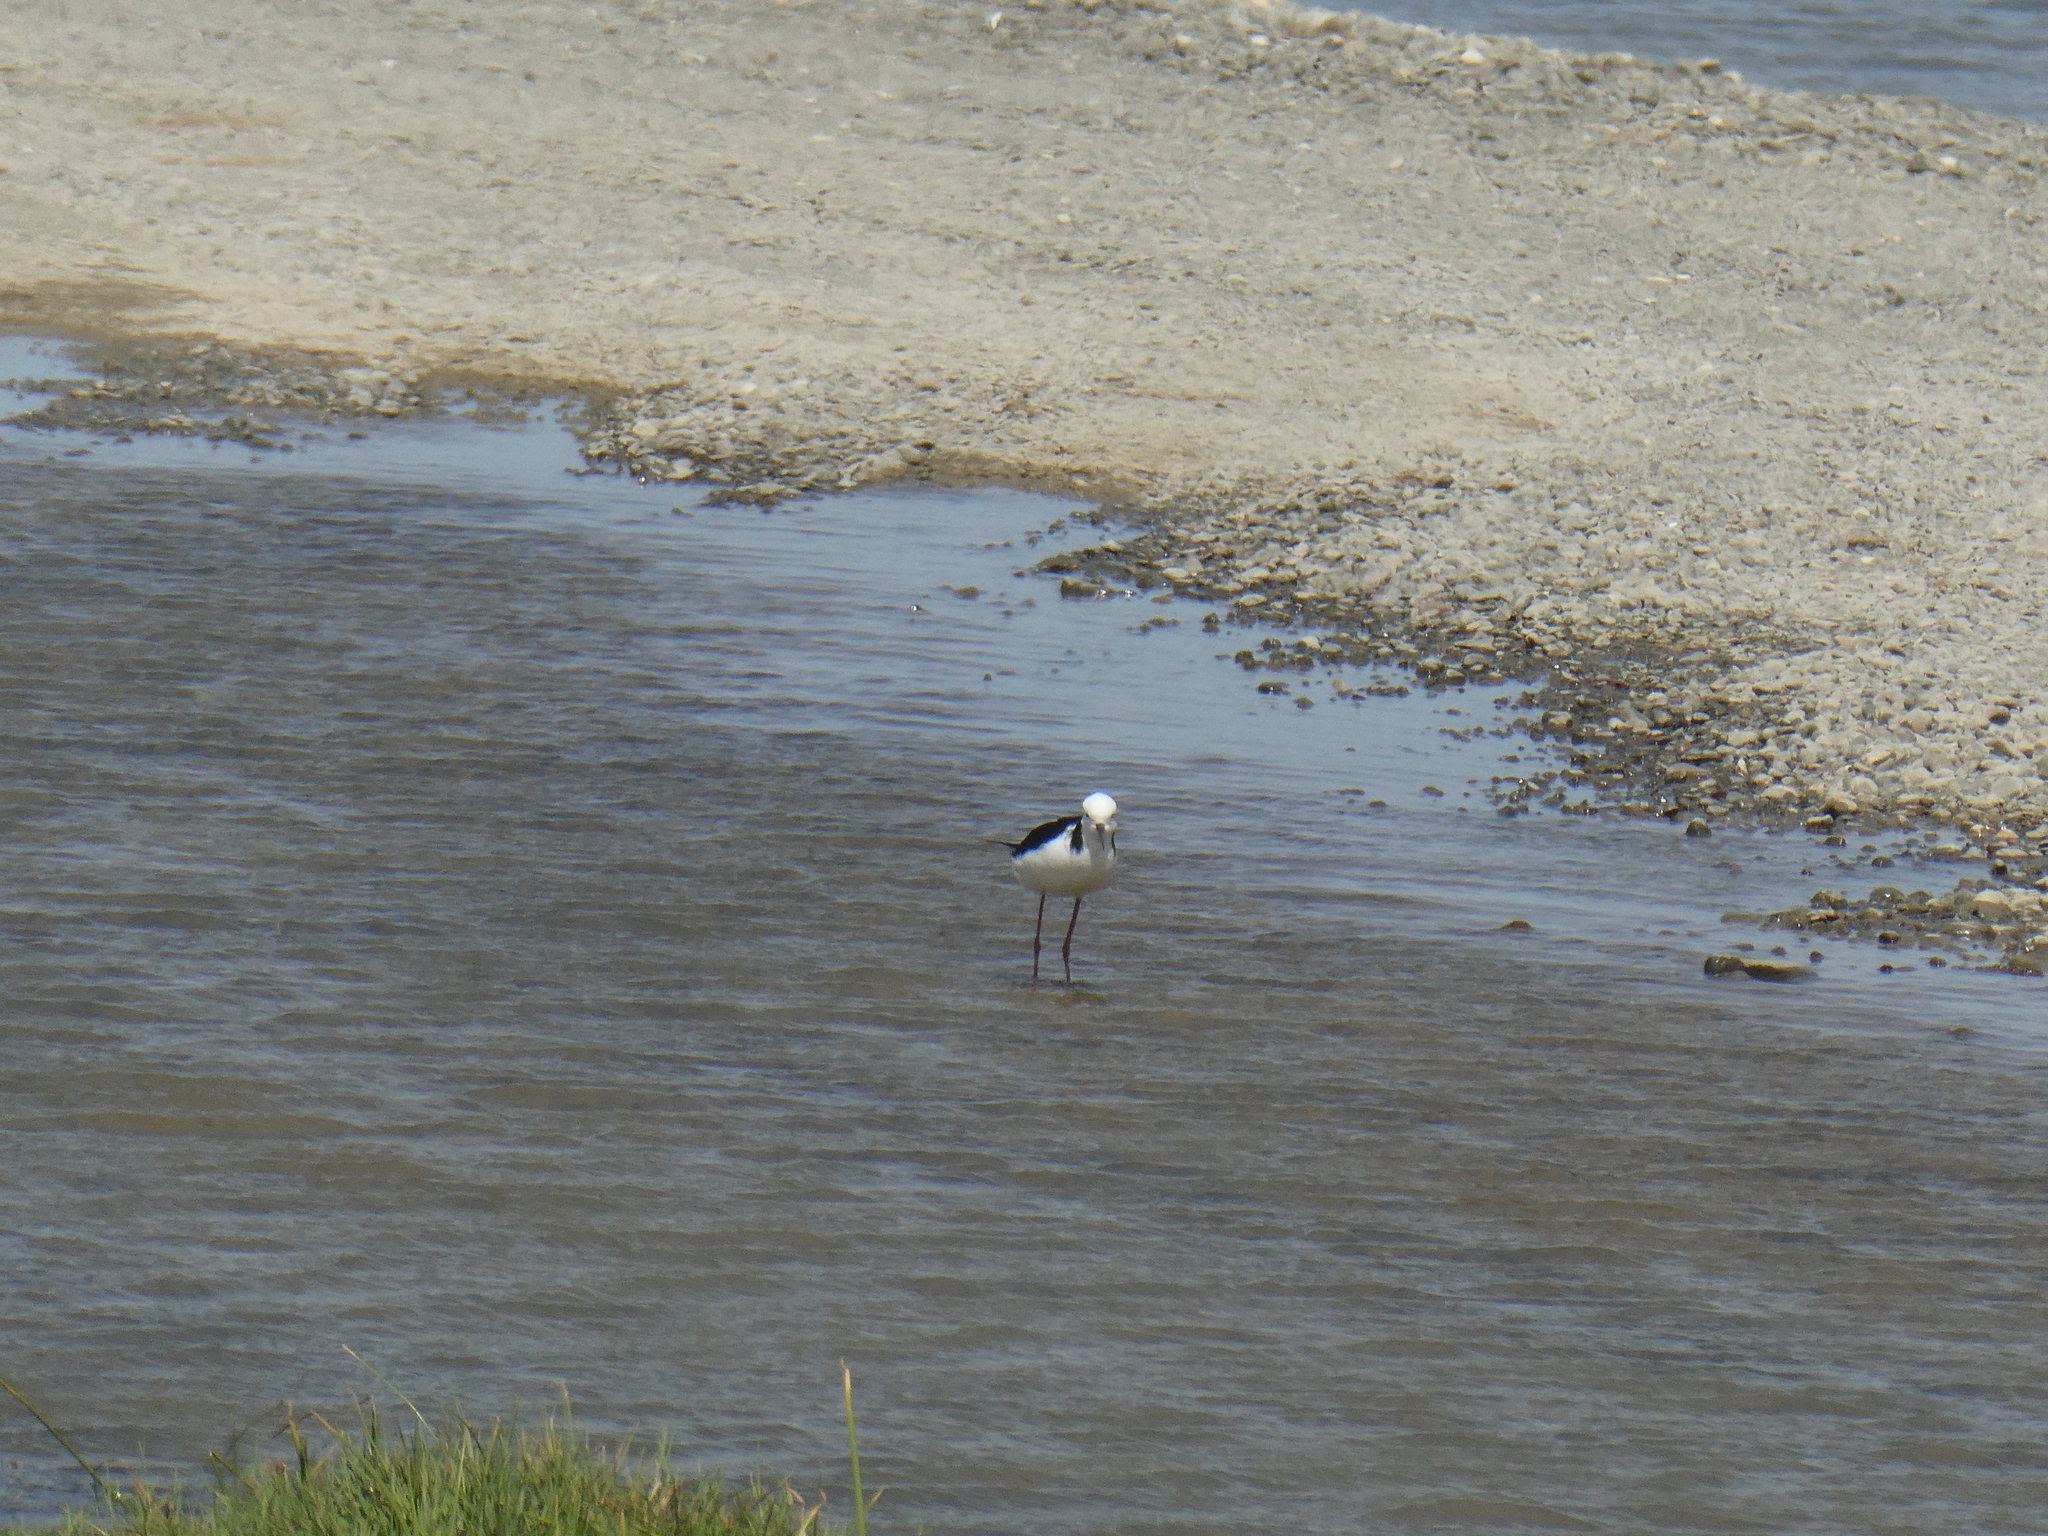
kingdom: Animalia
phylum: Chordata
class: Aves
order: Charadriiformes
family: Recurvirostridae
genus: Himantopus
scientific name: Himantopus leucocephalus
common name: White-headed stilt
